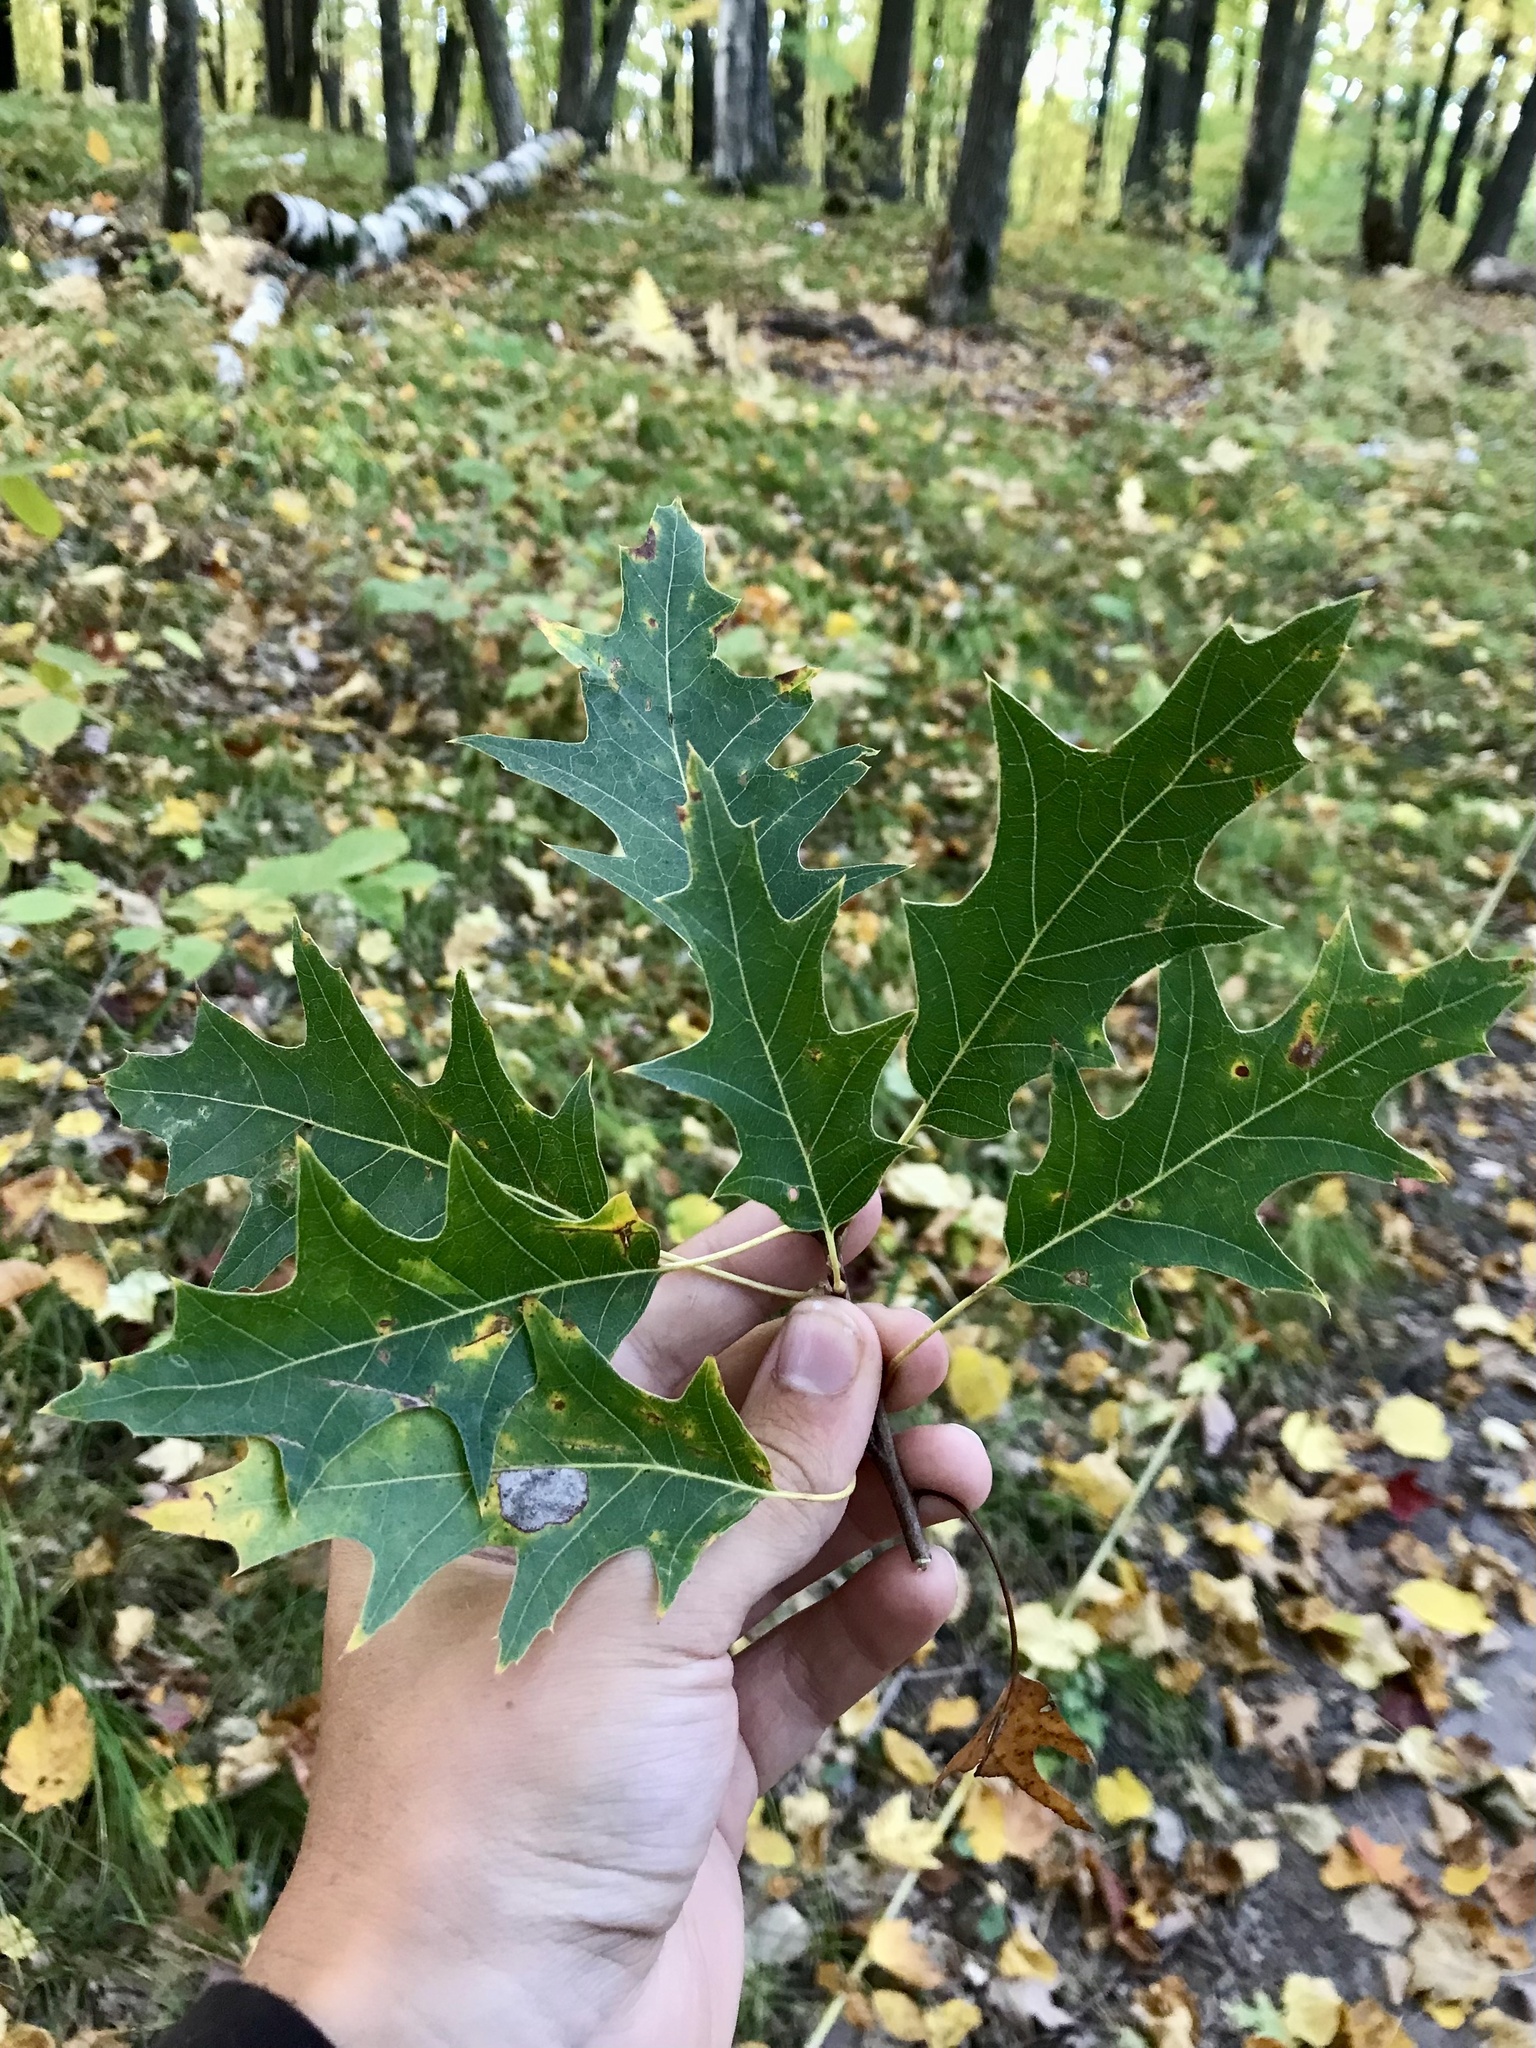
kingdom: Plantae
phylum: Tracheophyta
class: Magnoliopsida
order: Fagales
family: Fagaceae
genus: Quercus
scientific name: Quercus rubra
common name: Red oak
